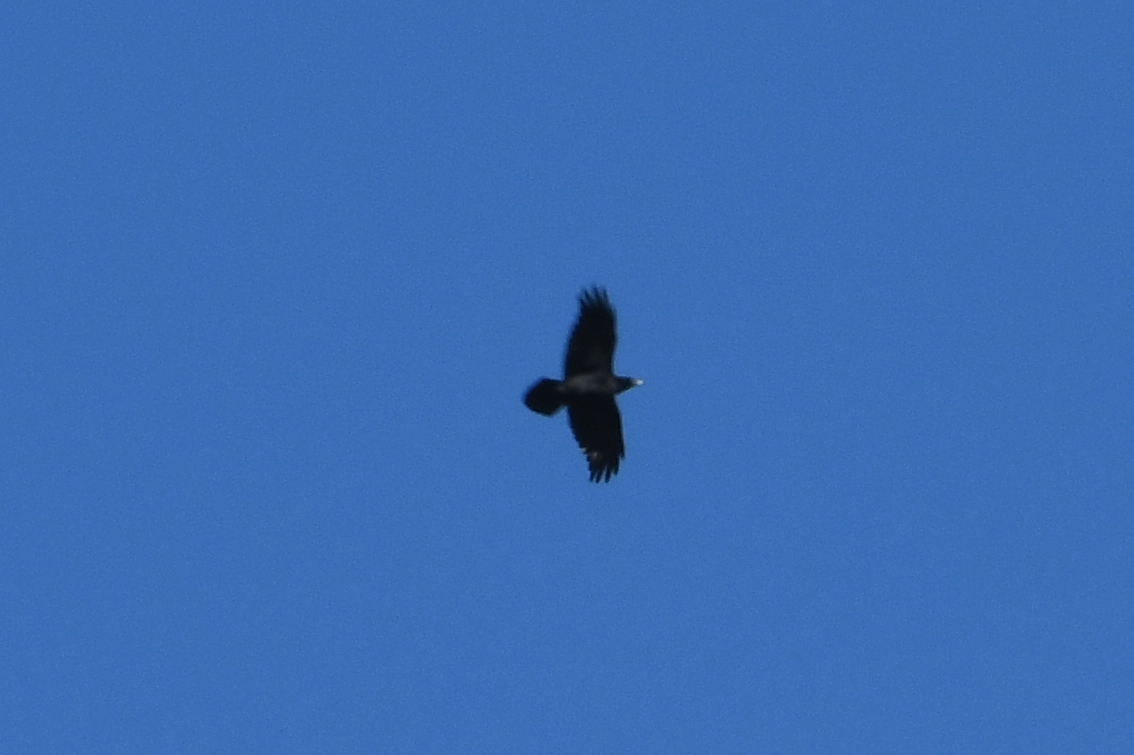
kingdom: Animalia
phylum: Chordata
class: Aves
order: Passeriformes
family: Corvidae
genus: Corvus
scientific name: Corvus corax
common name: Common raven
